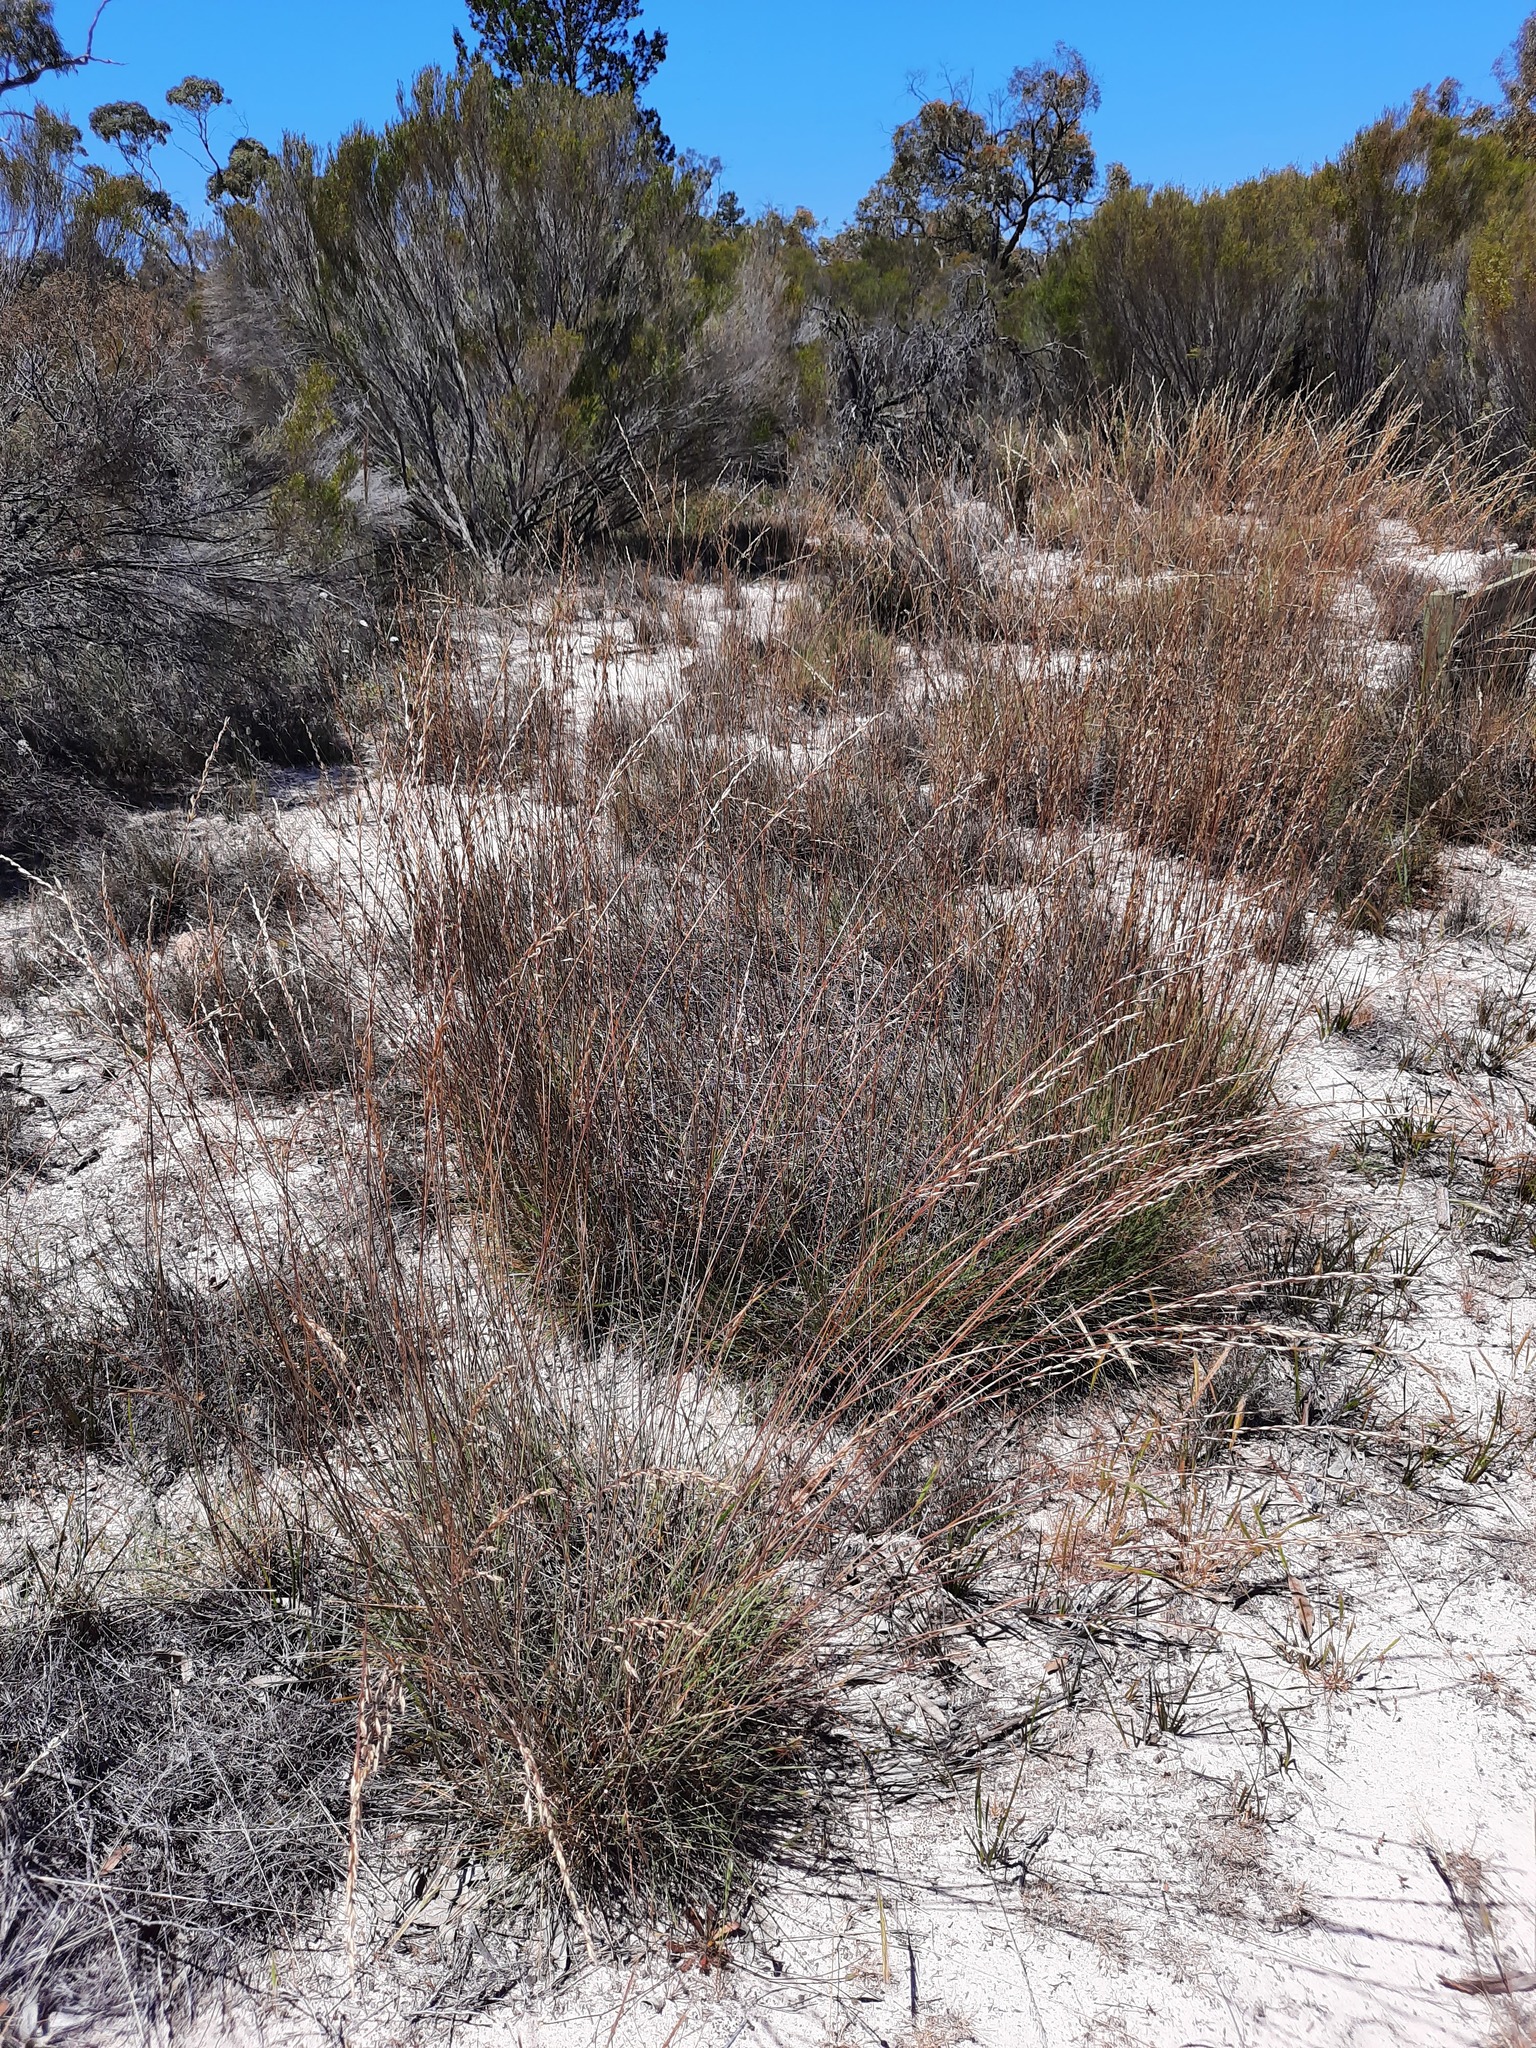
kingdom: Plantae
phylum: Tracheophyta
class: Liliopsida
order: Poales
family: Poaceae
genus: Triodia
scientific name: Triodia scariosa
